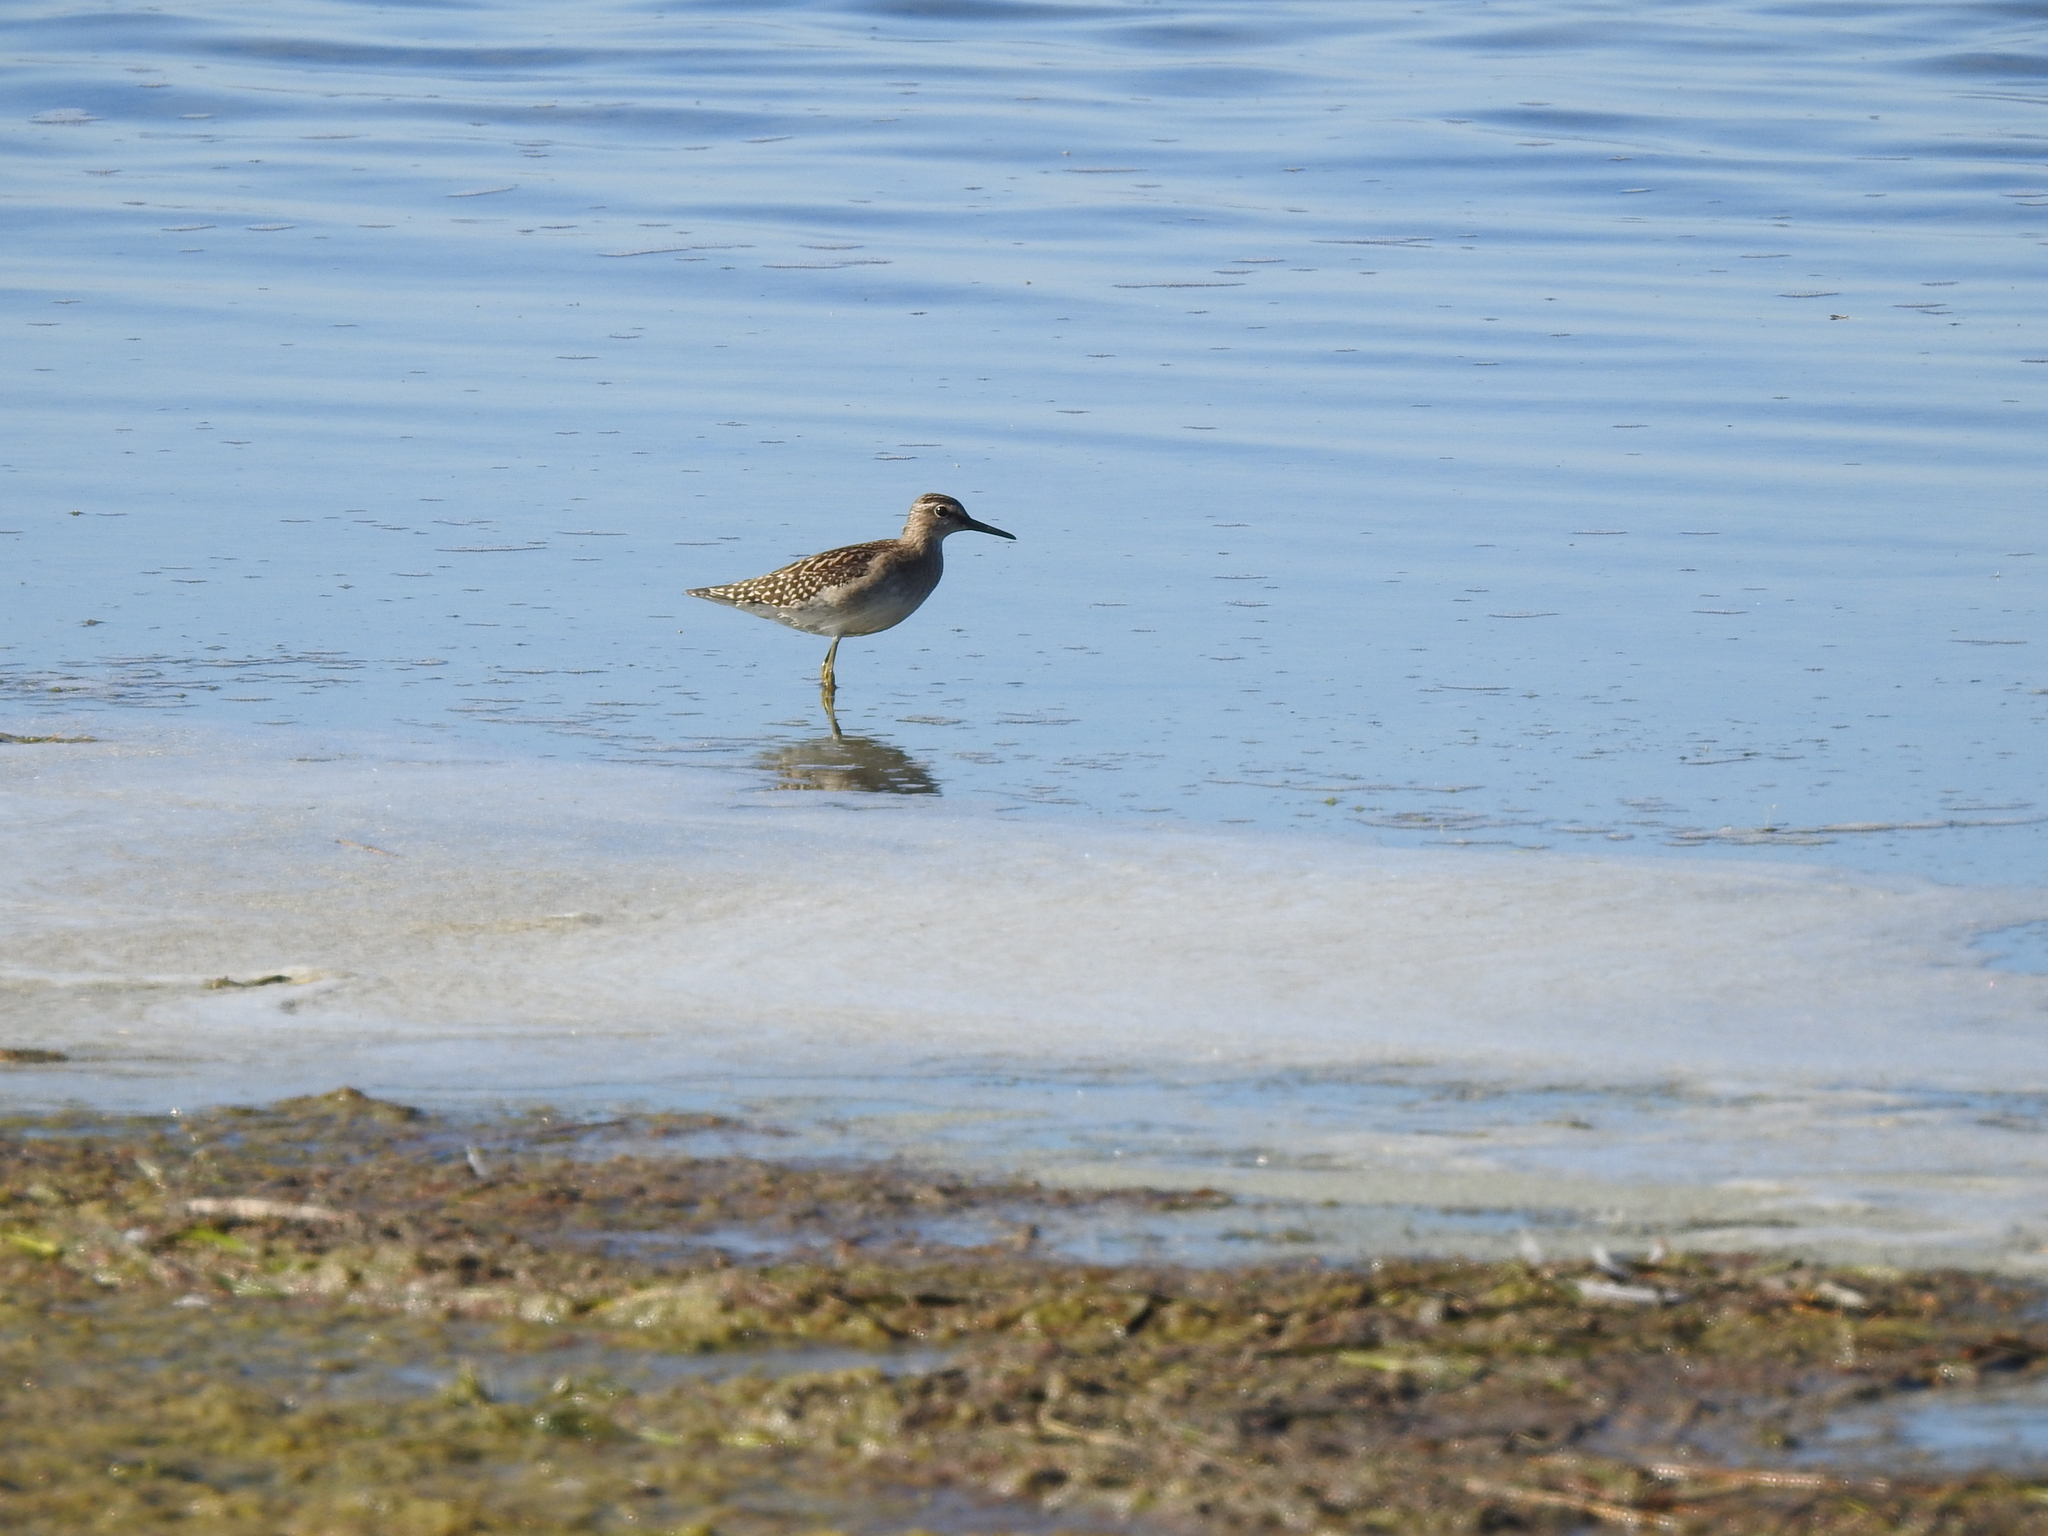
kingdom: Animalia
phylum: Chordata
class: Aves
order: Charadriiformes
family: Scolopacidae
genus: Tringa
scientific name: Tringa glareola
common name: Wood sandpiper
